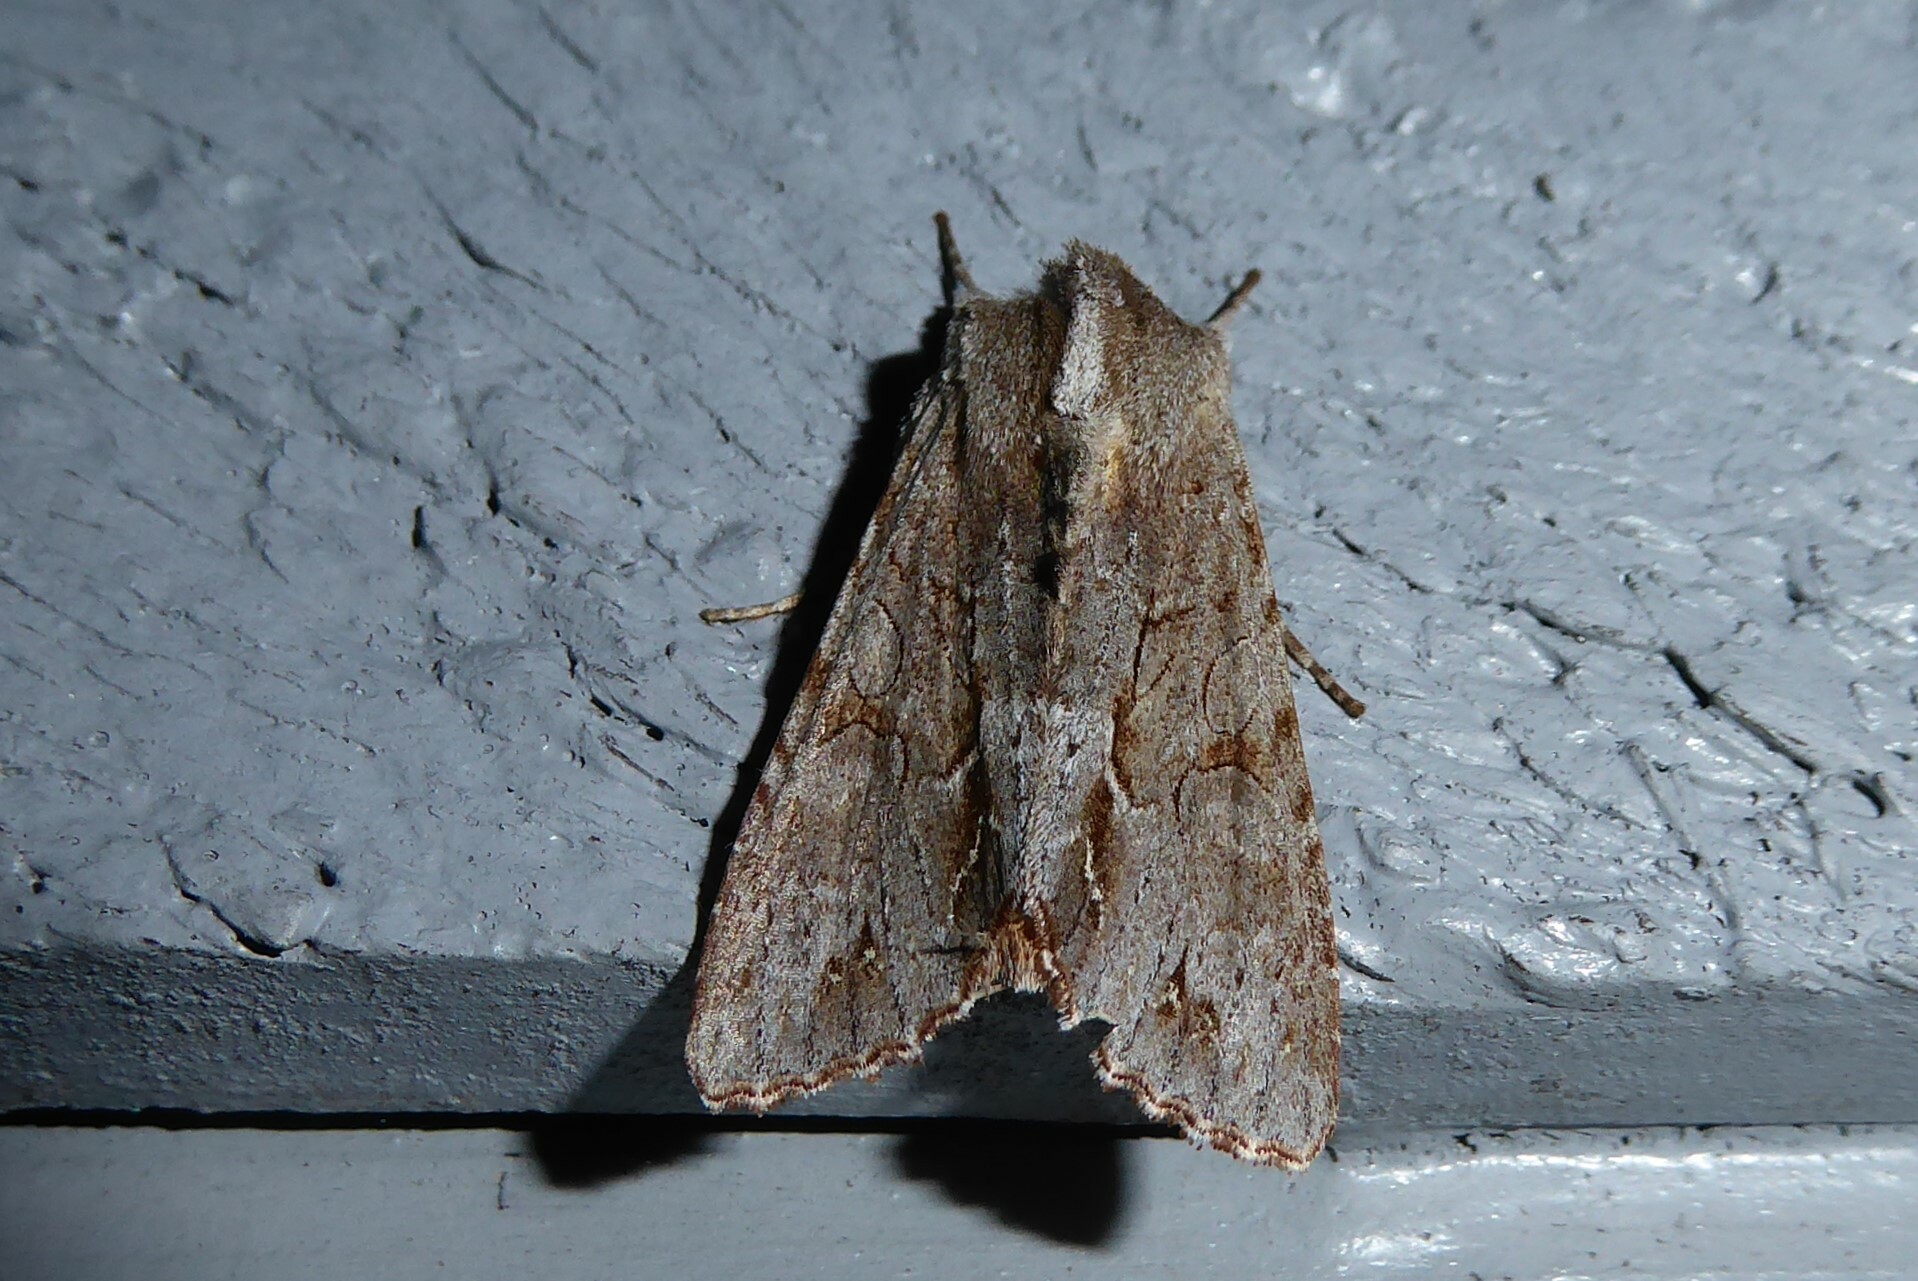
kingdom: Animalia
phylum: Arthropoda
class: Insecta
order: Lepidoptera
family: Noctuidae
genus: Ichneutica
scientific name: Ichneutica
